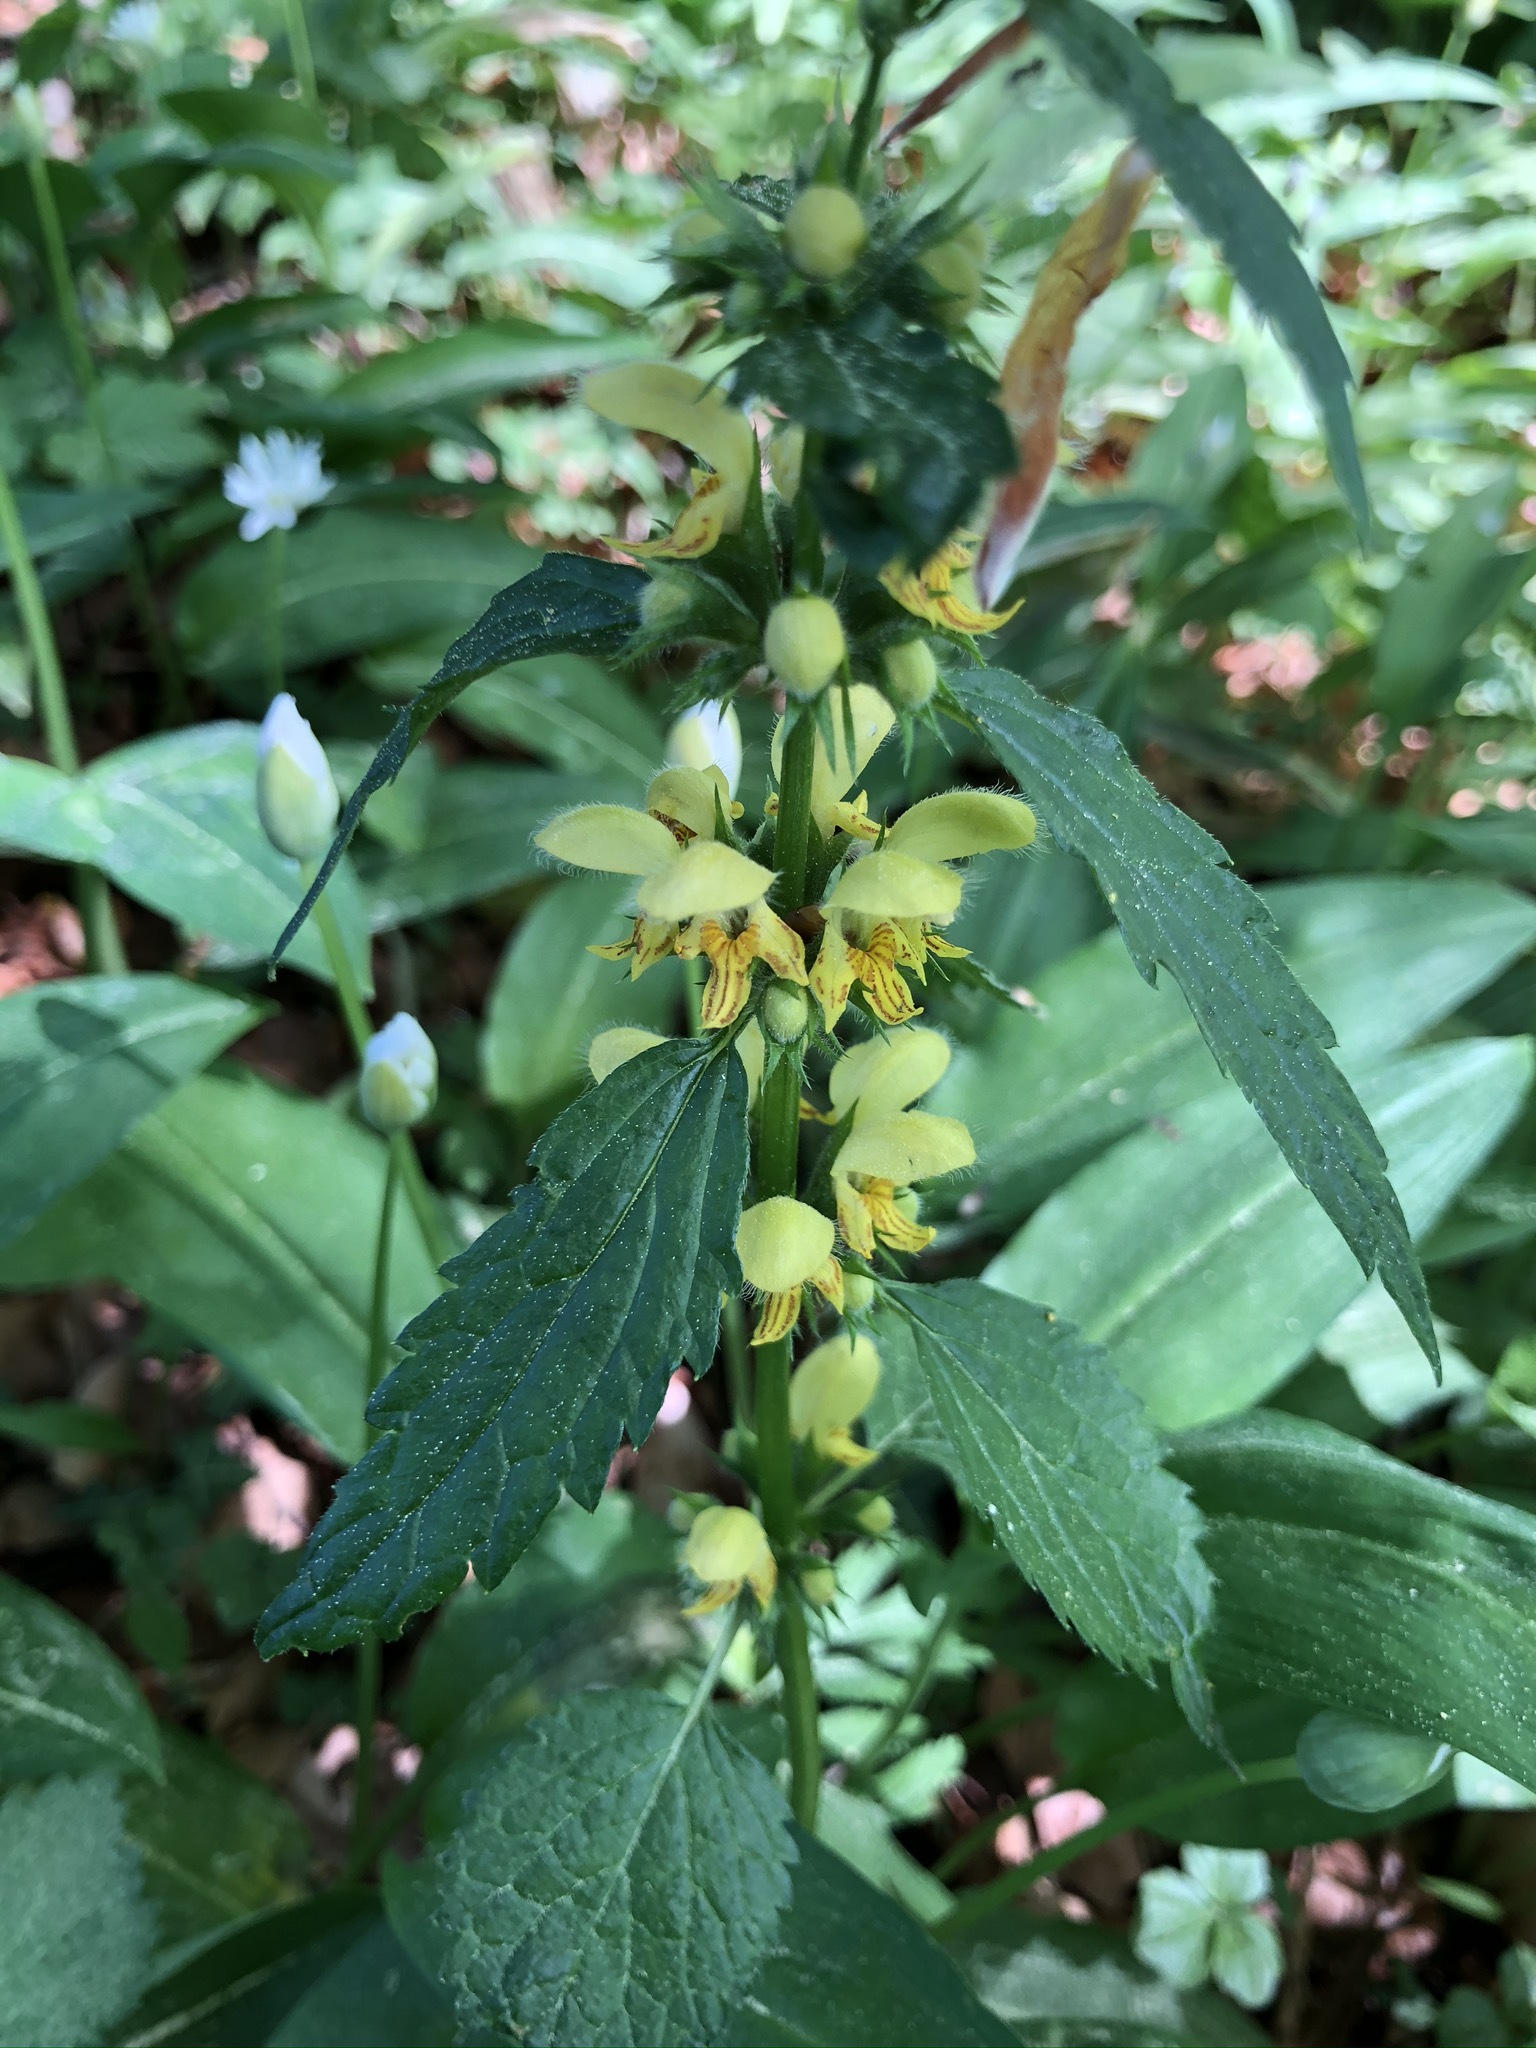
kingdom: Plantae
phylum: Tracheophyta
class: Magnoliopsida
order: Lamiales
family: Lamiaceae
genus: Lamium
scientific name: Lamium galeobdolon
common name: Yellow archangel
